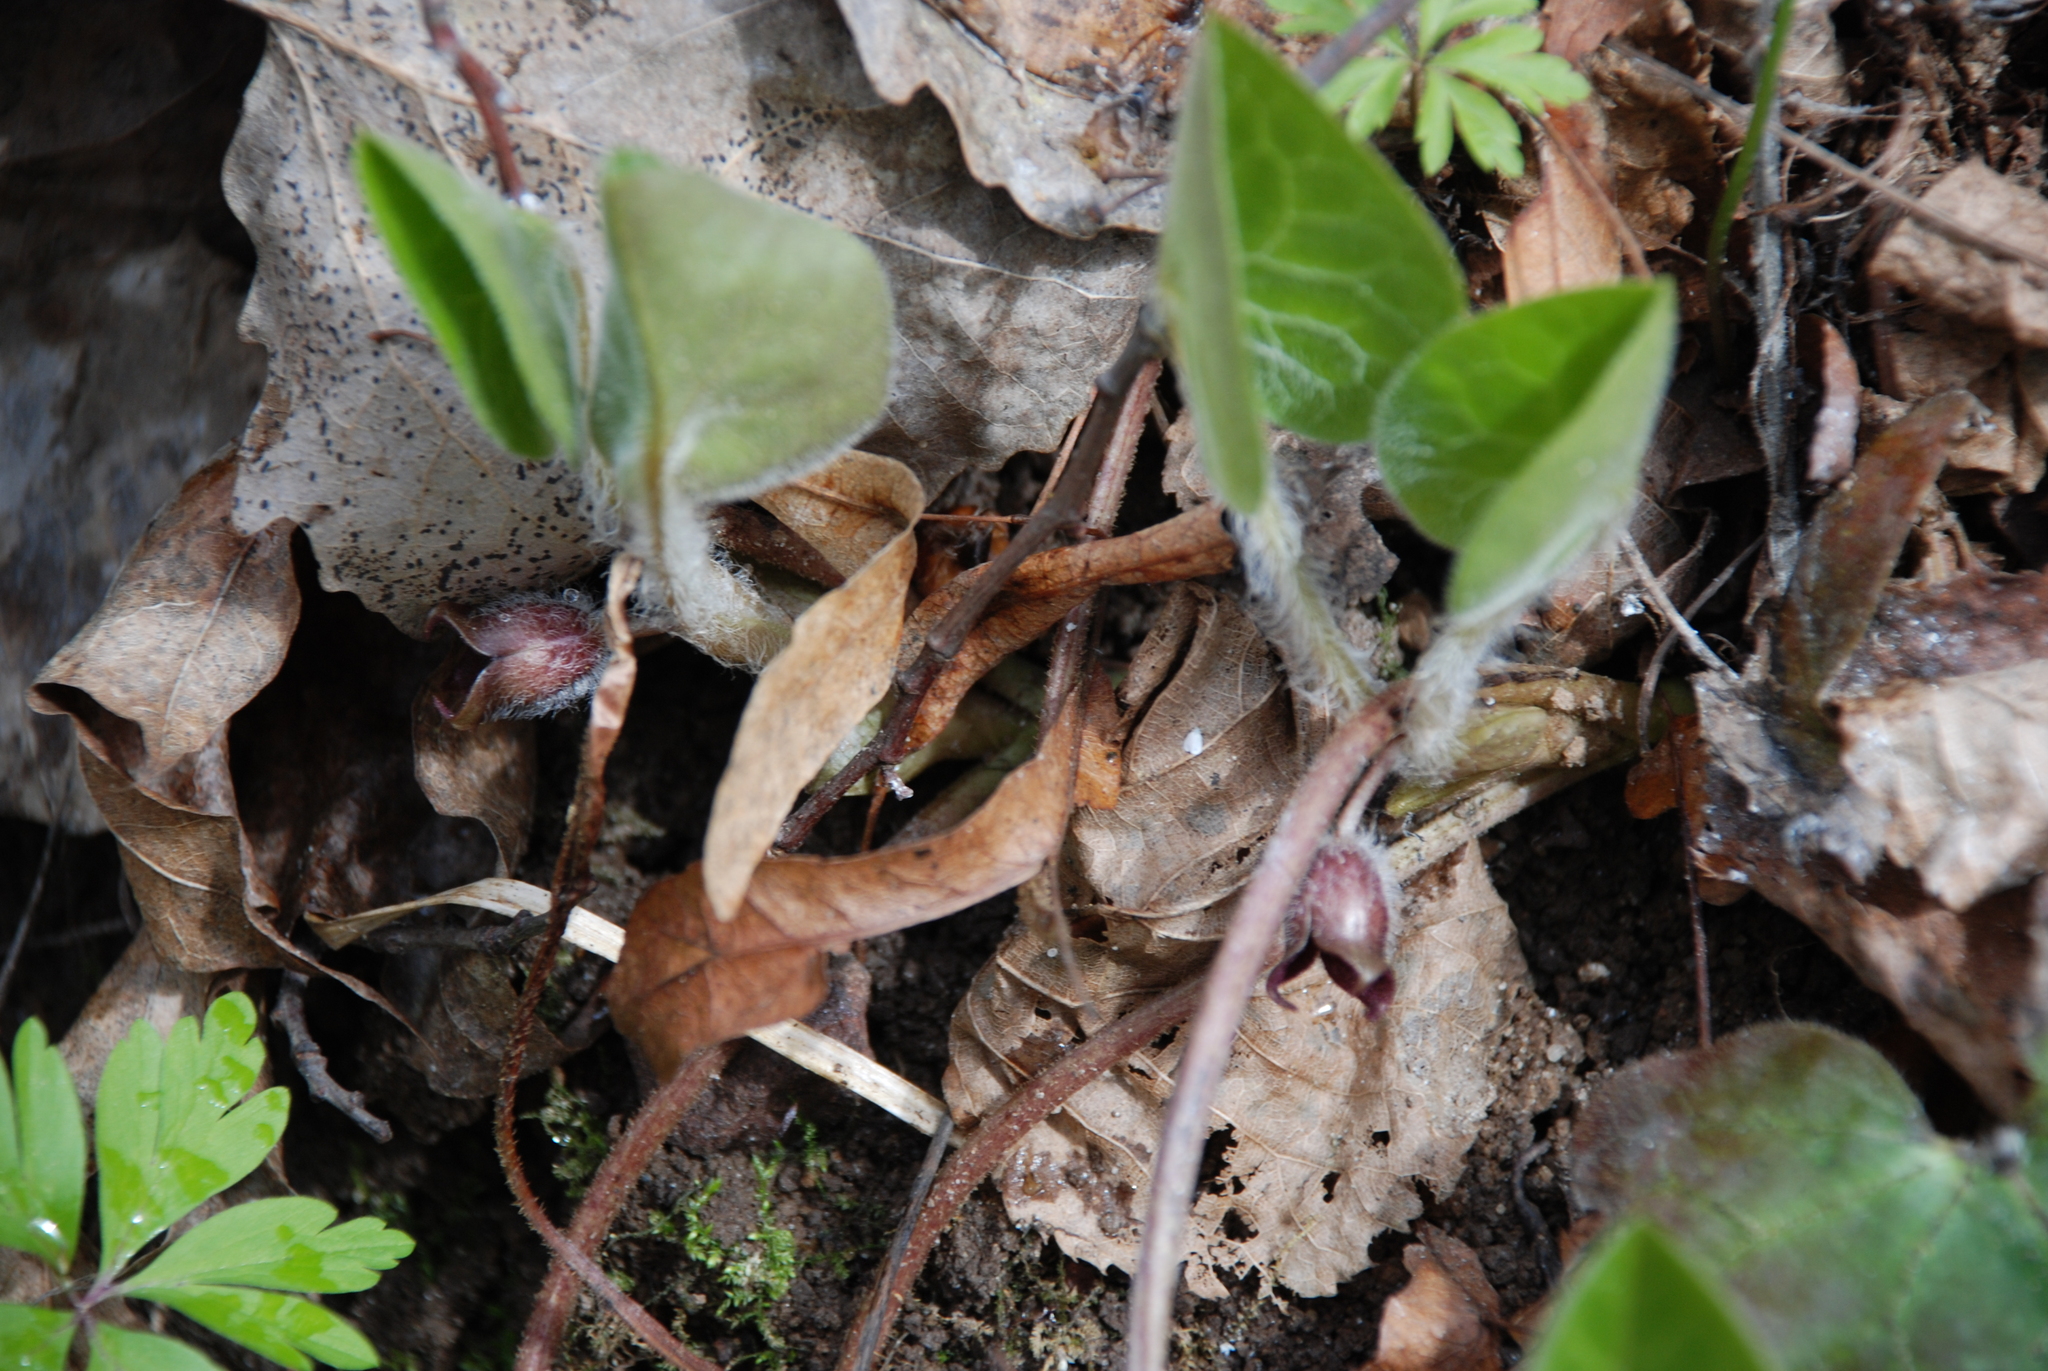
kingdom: Plantae
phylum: Tracheophyta
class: Magnoliopsida
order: Piperales
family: Aristolochiaceae
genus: Asarum
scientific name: Asarum europaeum
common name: Asarabacca
